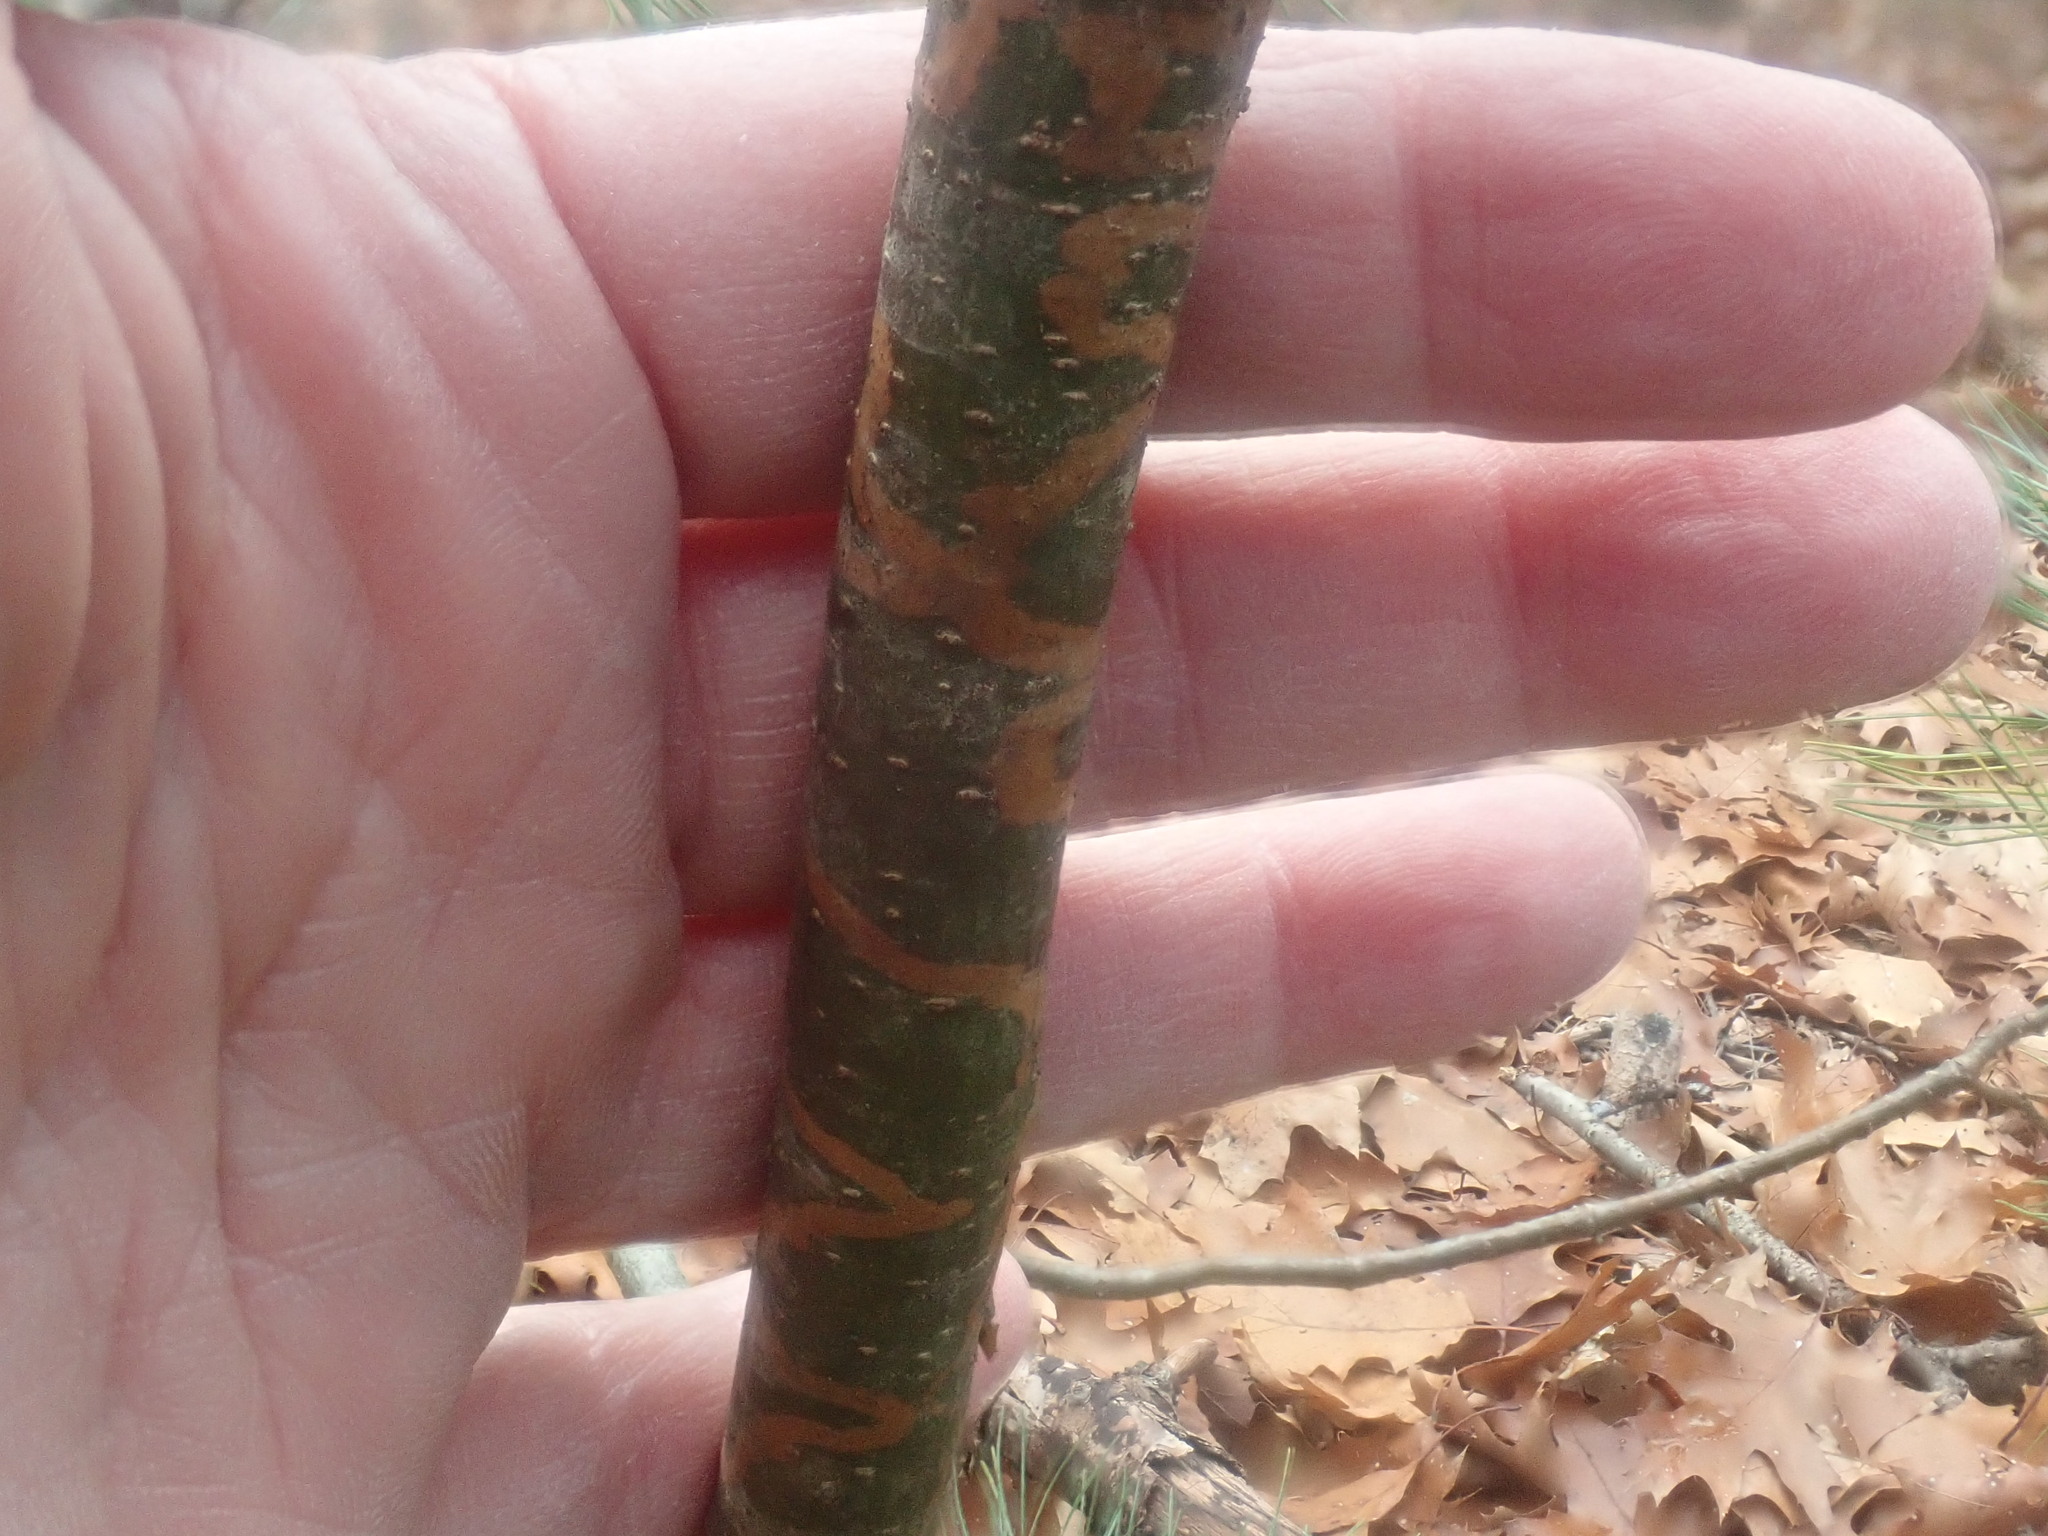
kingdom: Animalia
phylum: Arthropoda
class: Insecta
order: Lepidoptera
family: Gracillariidae
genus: Marmara
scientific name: Marmara fasciella
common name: White pine barkminer moth
